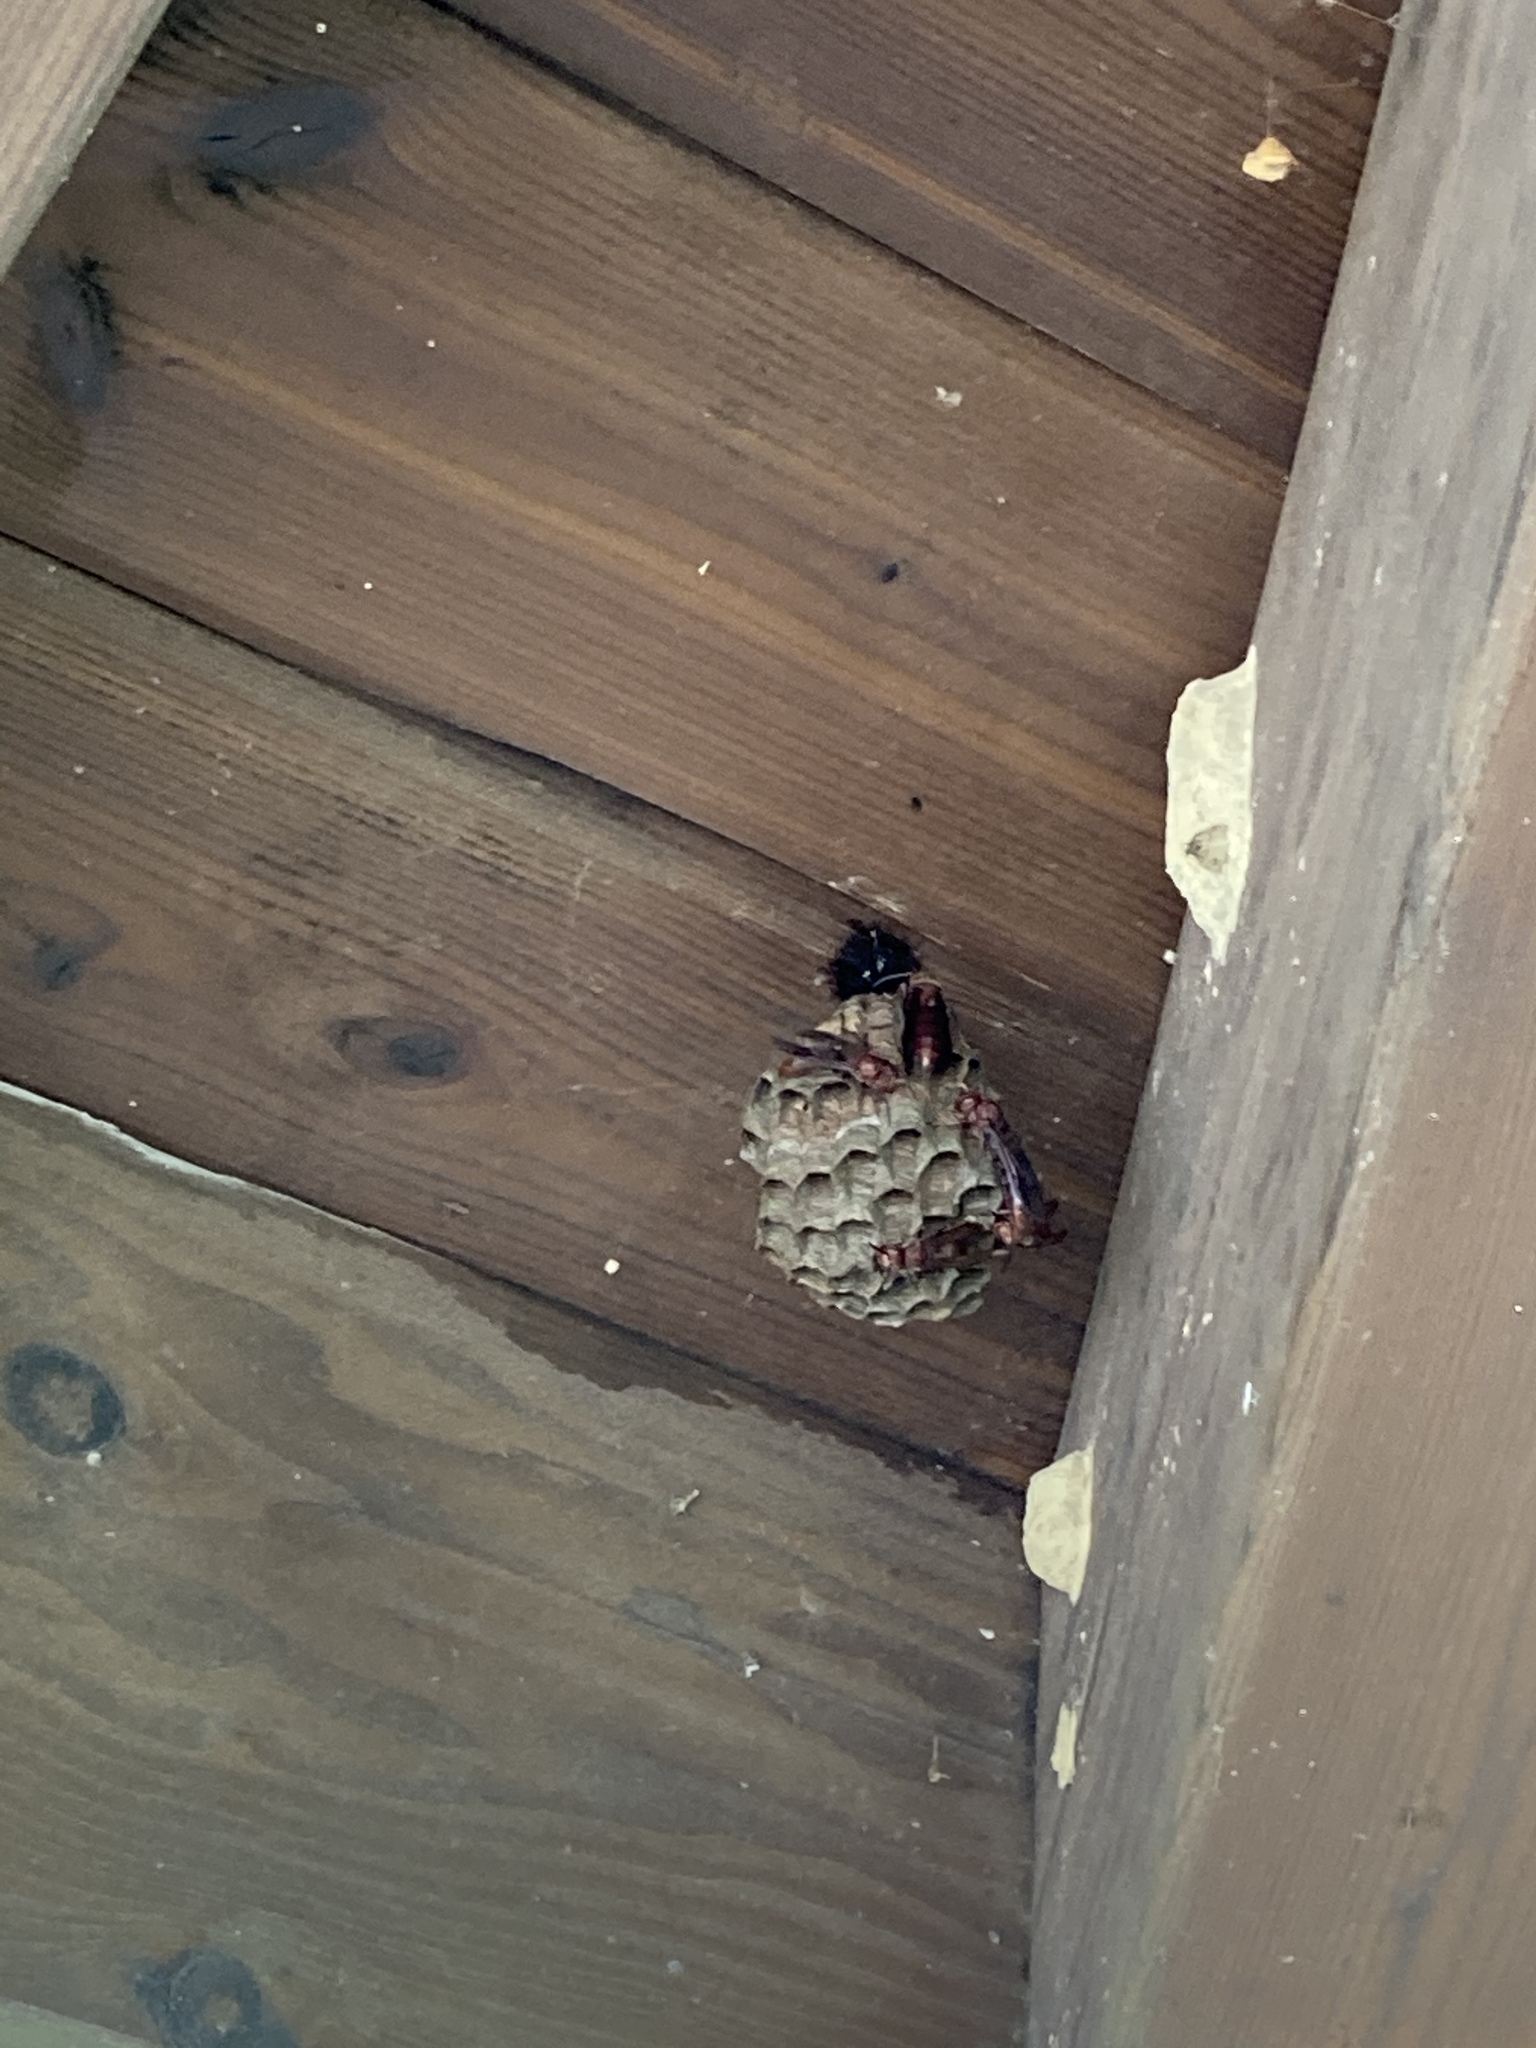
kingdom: Animalia
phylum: Arthropoda
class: Insecta
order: Hymenoptera
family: Eumenidae
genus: Polistes
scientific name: Polistes tenebricosus
